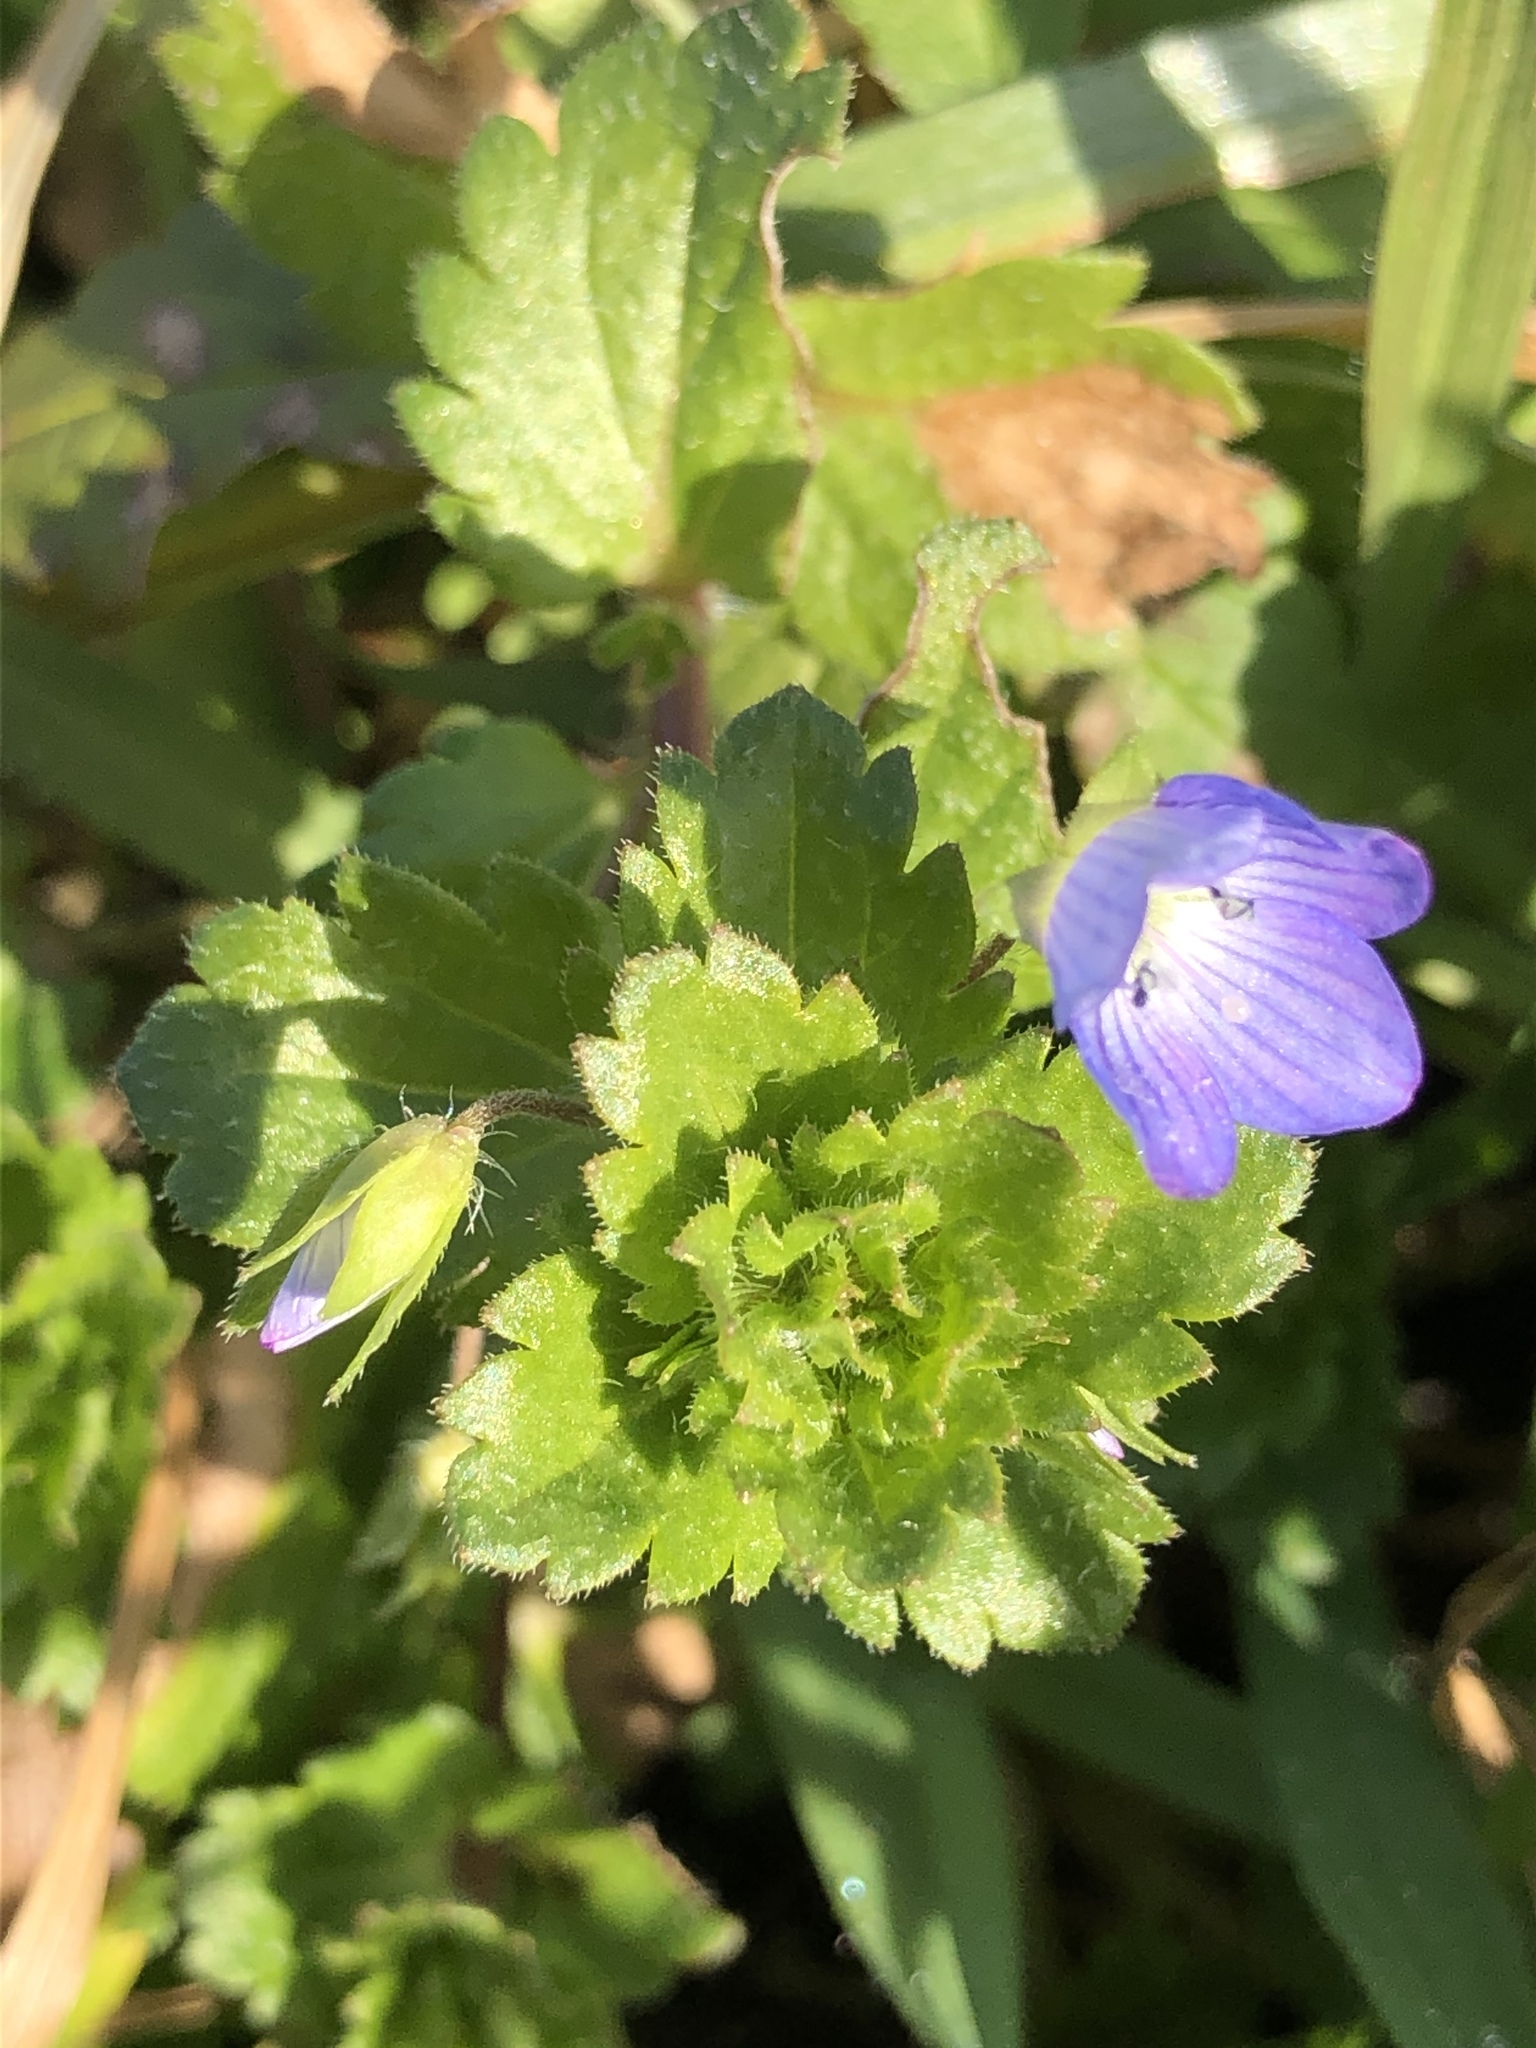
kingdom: Plantae
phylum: Tracheophyta
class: Magnoliopsida
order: Lamiales
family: Plantaginaceae
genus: Veronica
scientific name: Veronica persica
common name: Common field-speedwell
